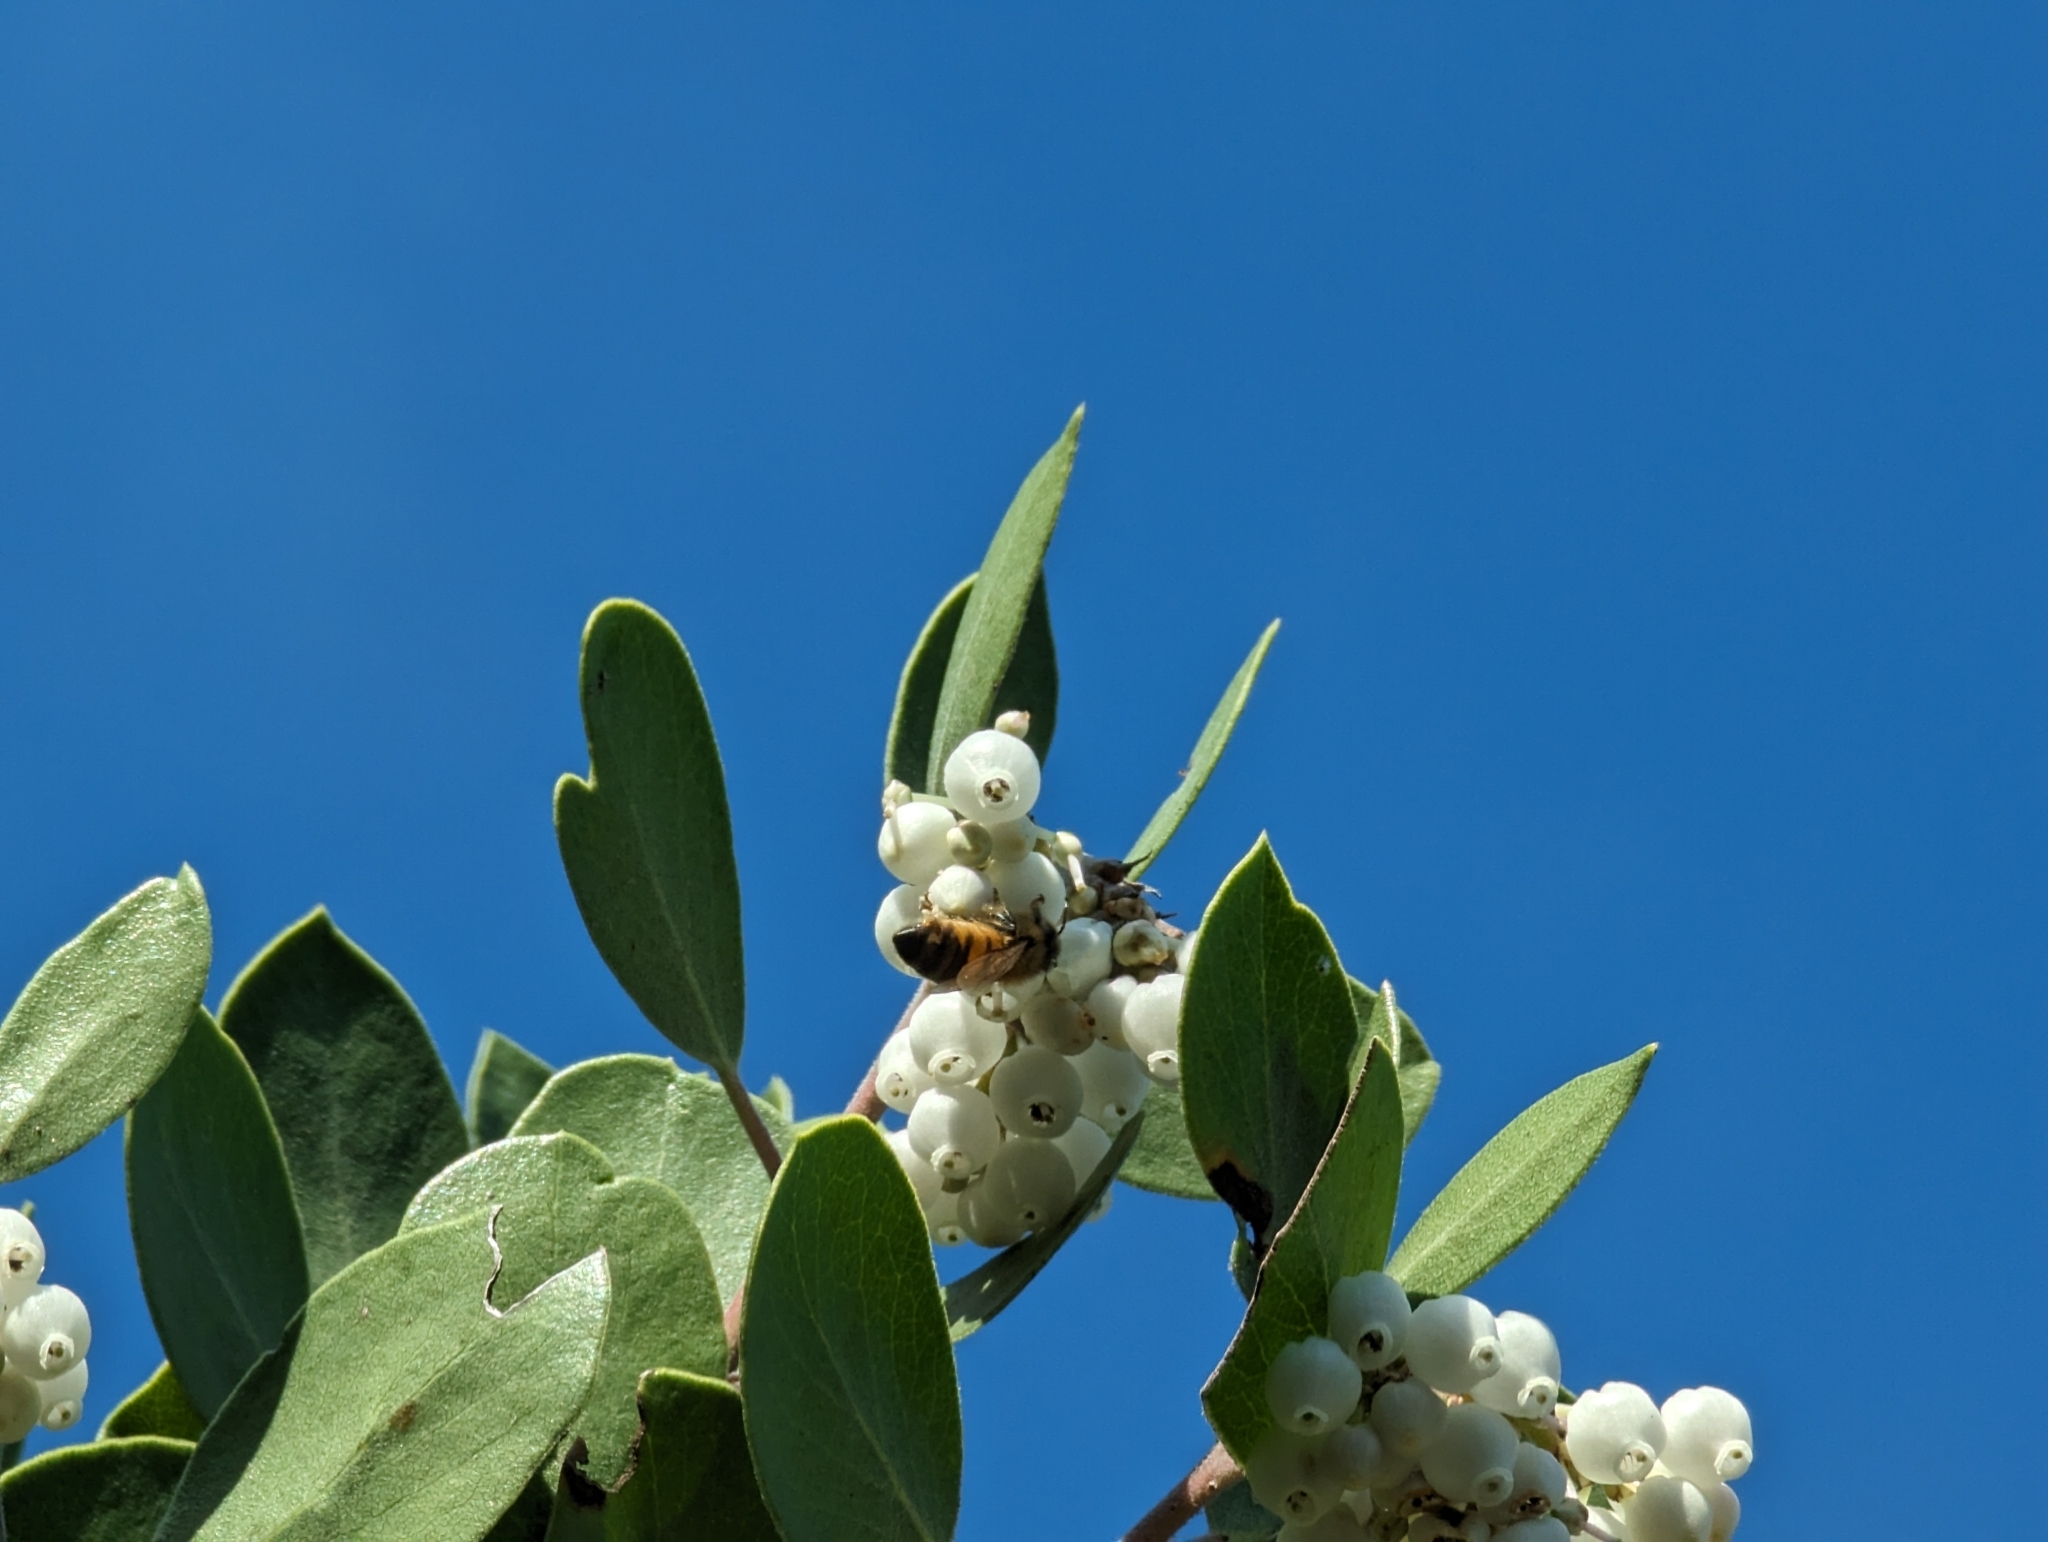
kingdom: Animalia
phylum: Arthropoda
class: Insecta
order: Hymenoptera
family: Apidae
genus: Apis
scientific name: Apis mellifera
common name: Honey bee
